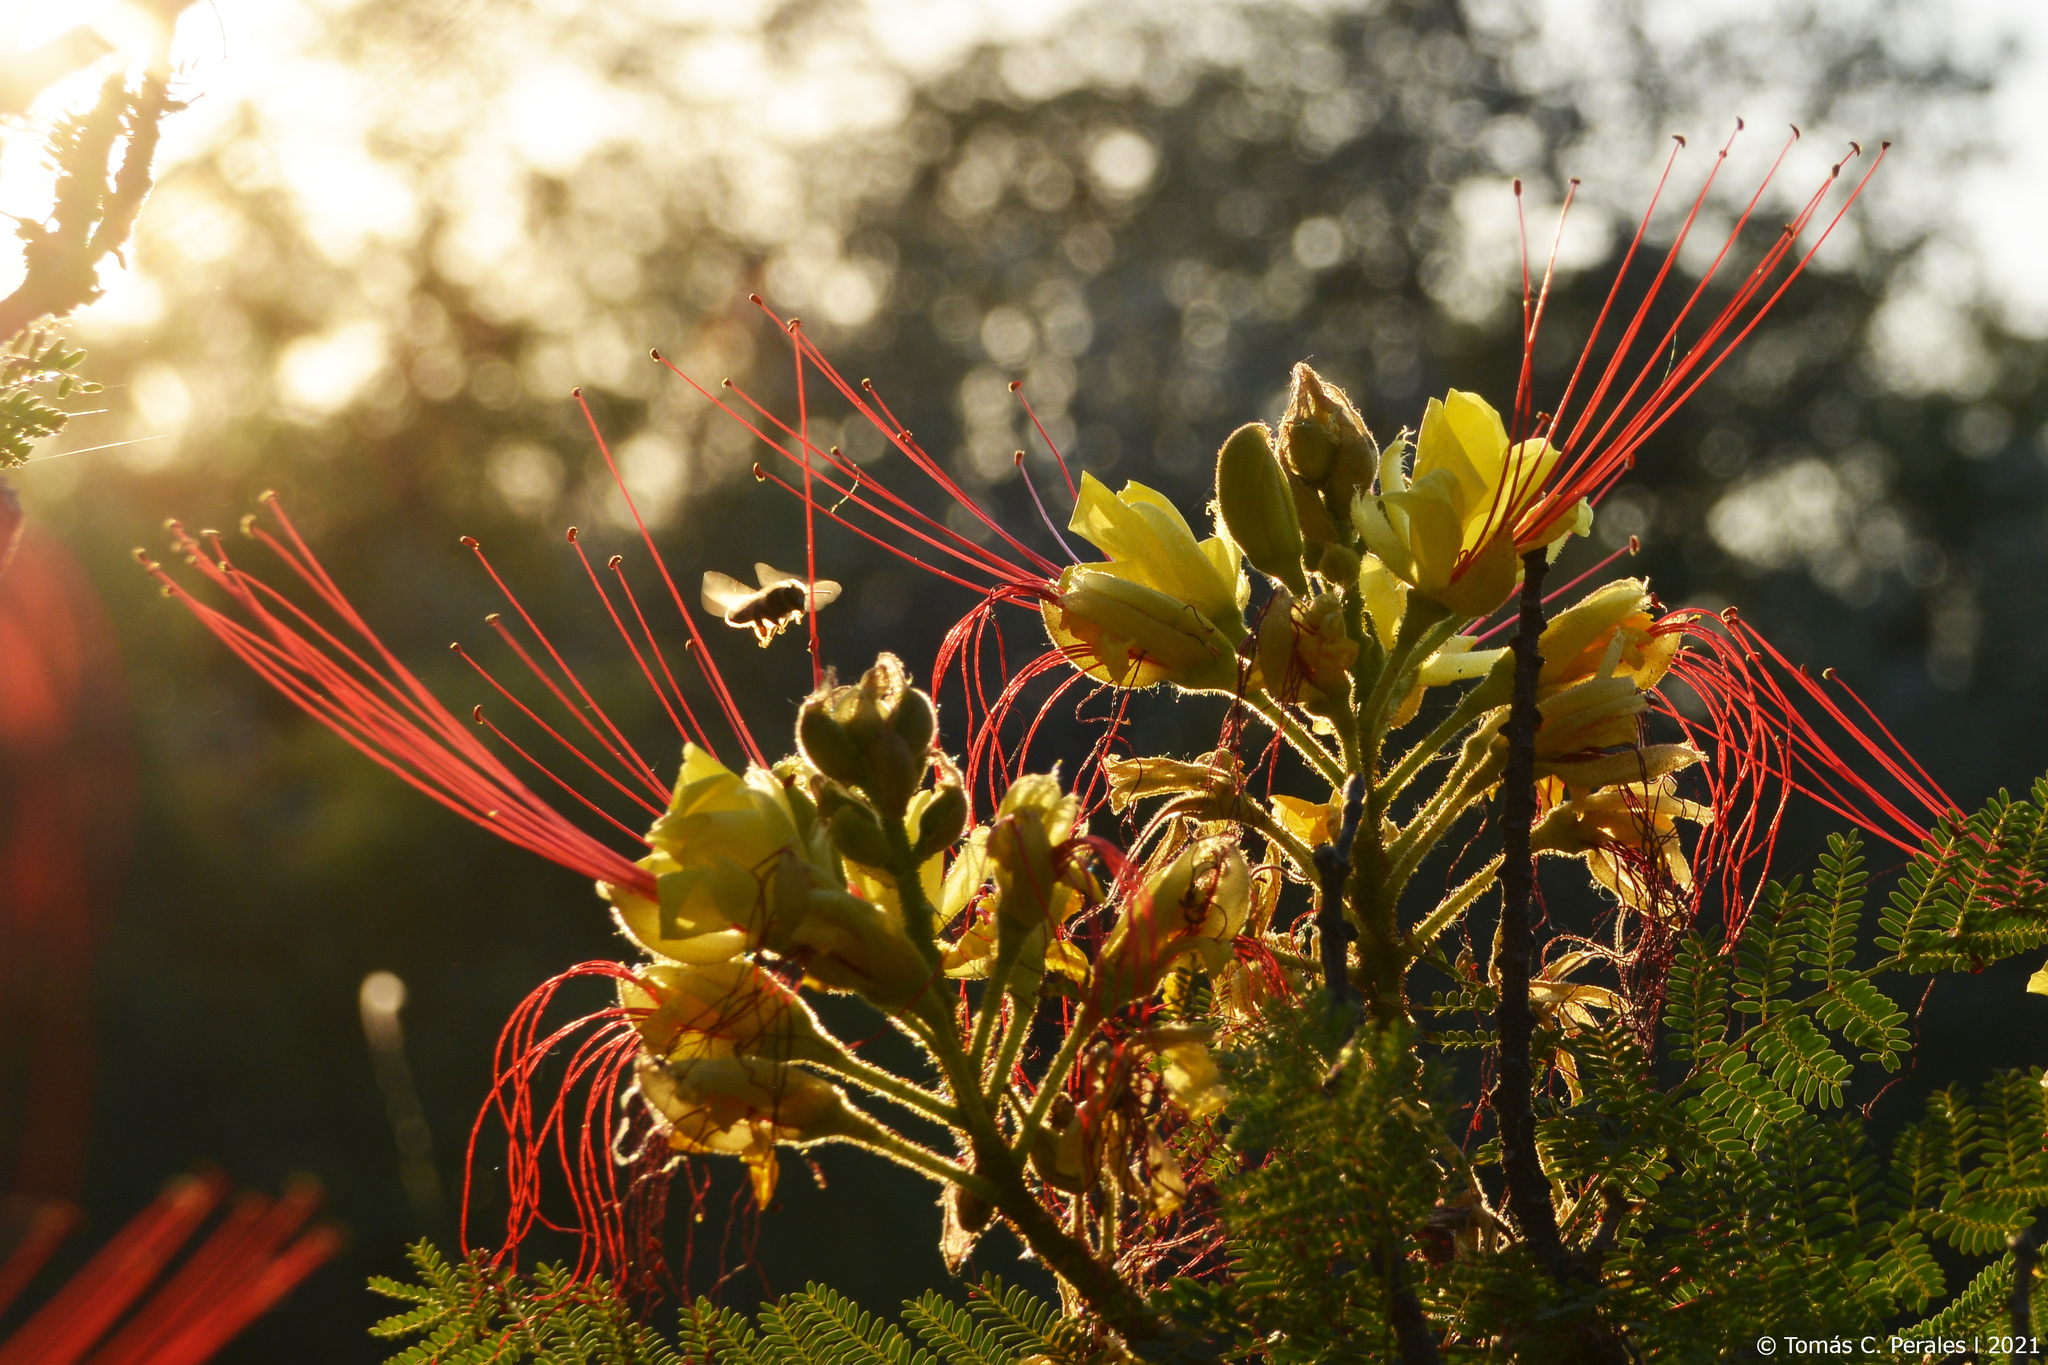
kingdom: Animalia
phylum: Arthropoda
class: Insecta
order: Hymenoptera
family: Apidae
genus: Apis
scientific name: Apis mellifera
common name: Honey bee
